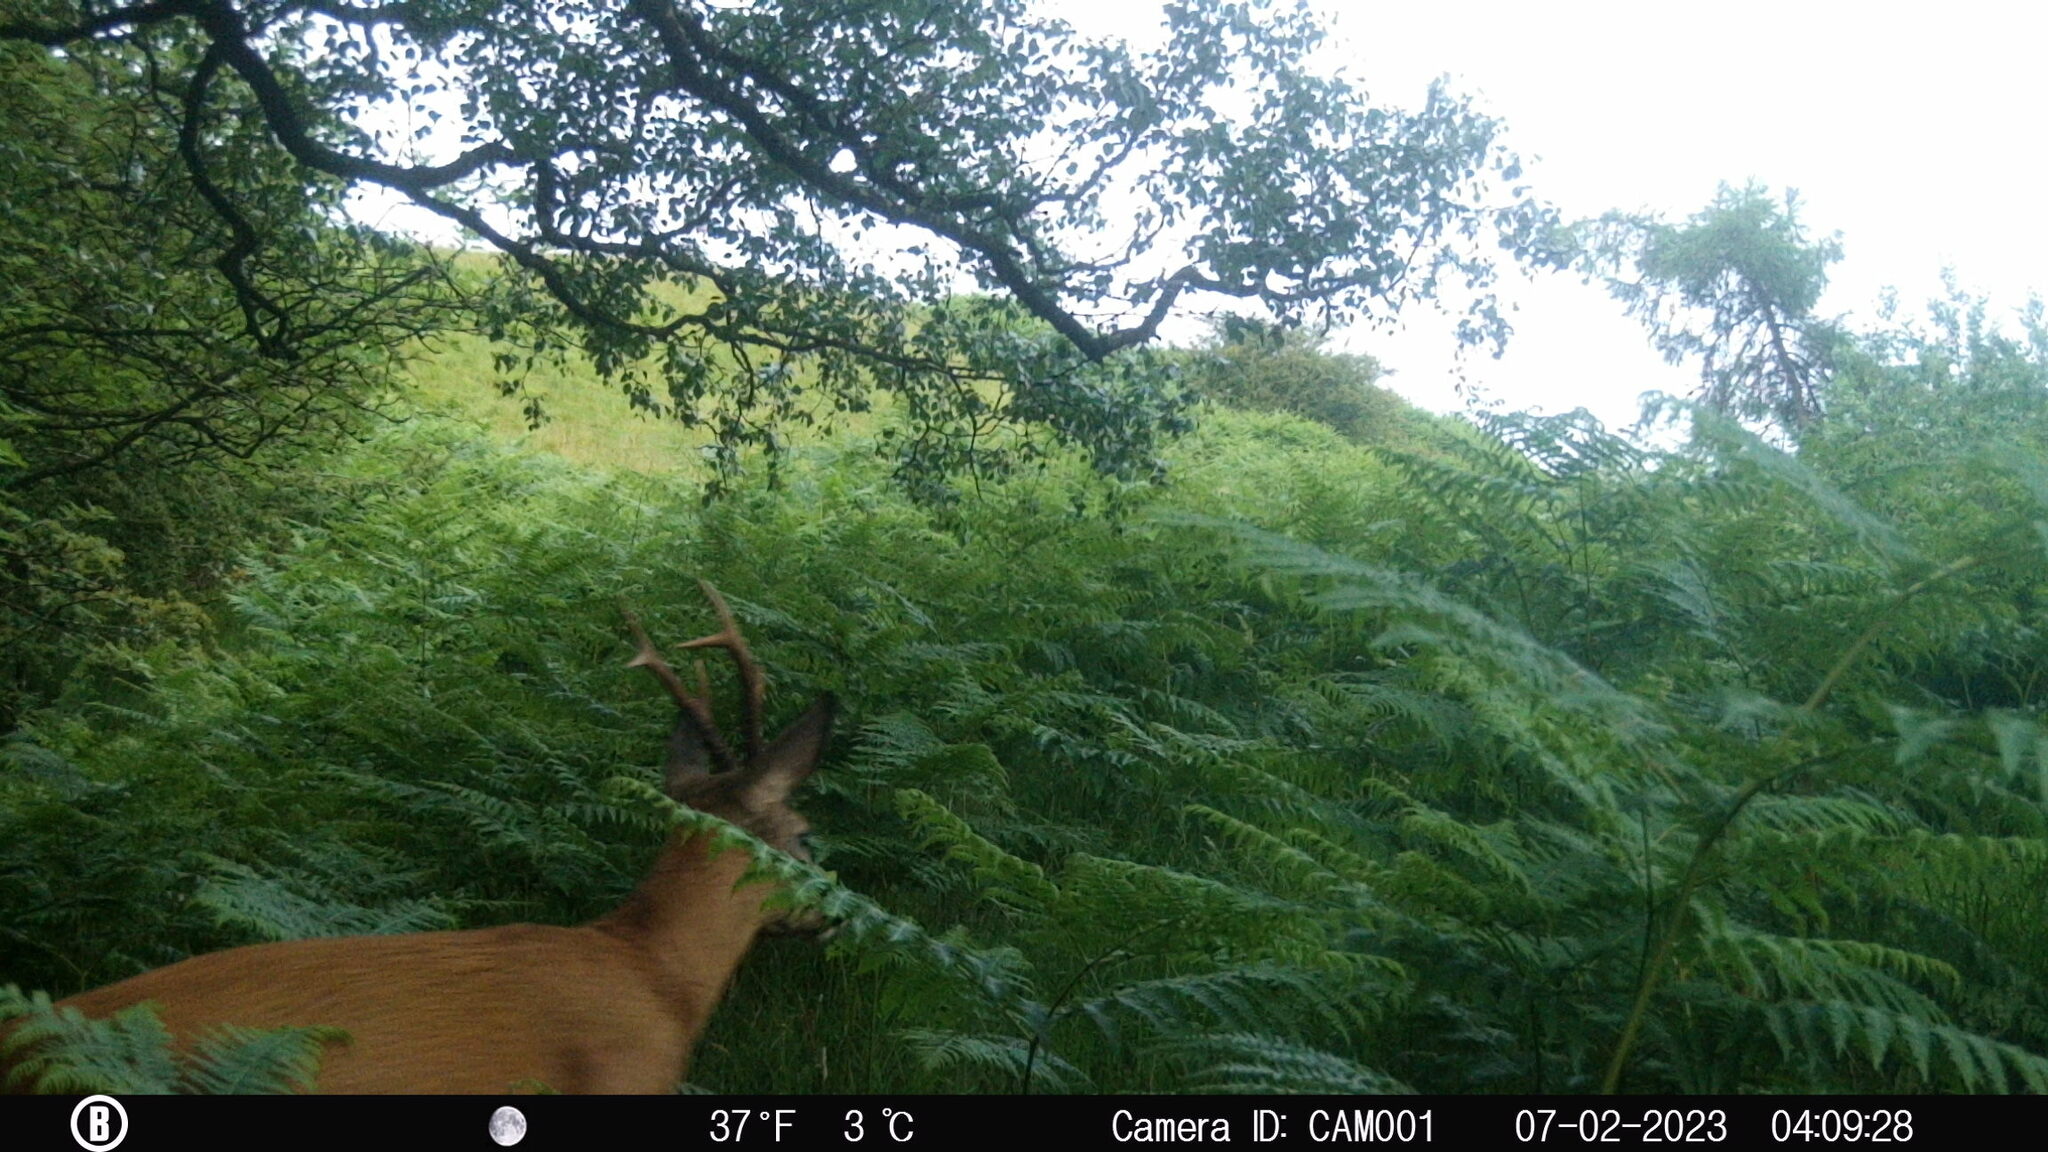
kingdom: Animalia
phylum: Chordata
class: Mammalia
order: Artiodactyla
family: Cervidae
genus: Capreolus
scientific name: Capreolus capreolus
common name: Western roe deer
